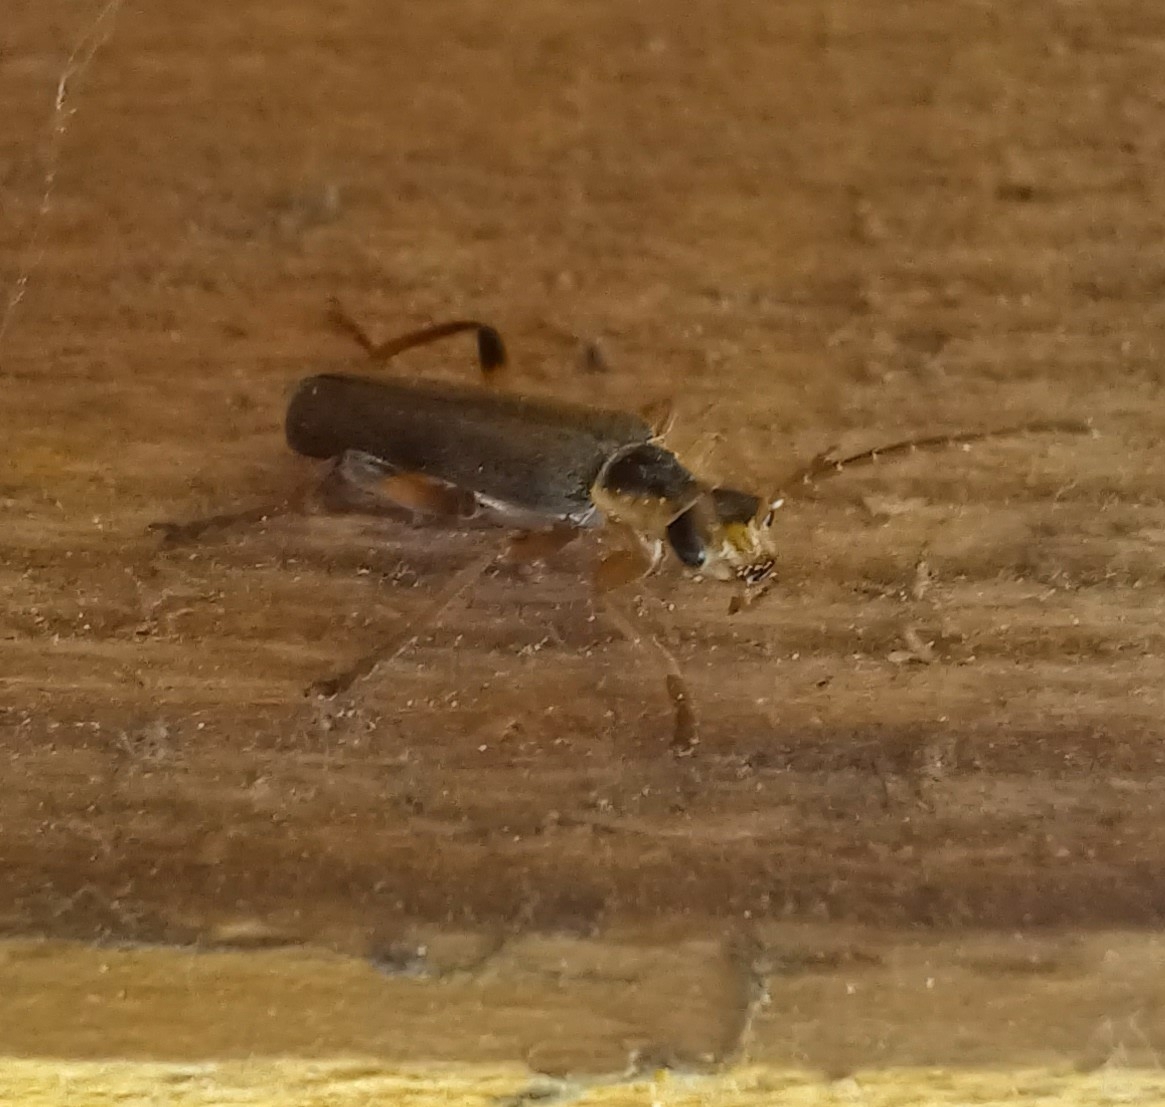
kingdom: Animalia
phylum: Arthropoda
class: Insecta
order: Coleoptera
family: Cantharidae
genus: Cantharis
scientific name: Cantharis nigricans
